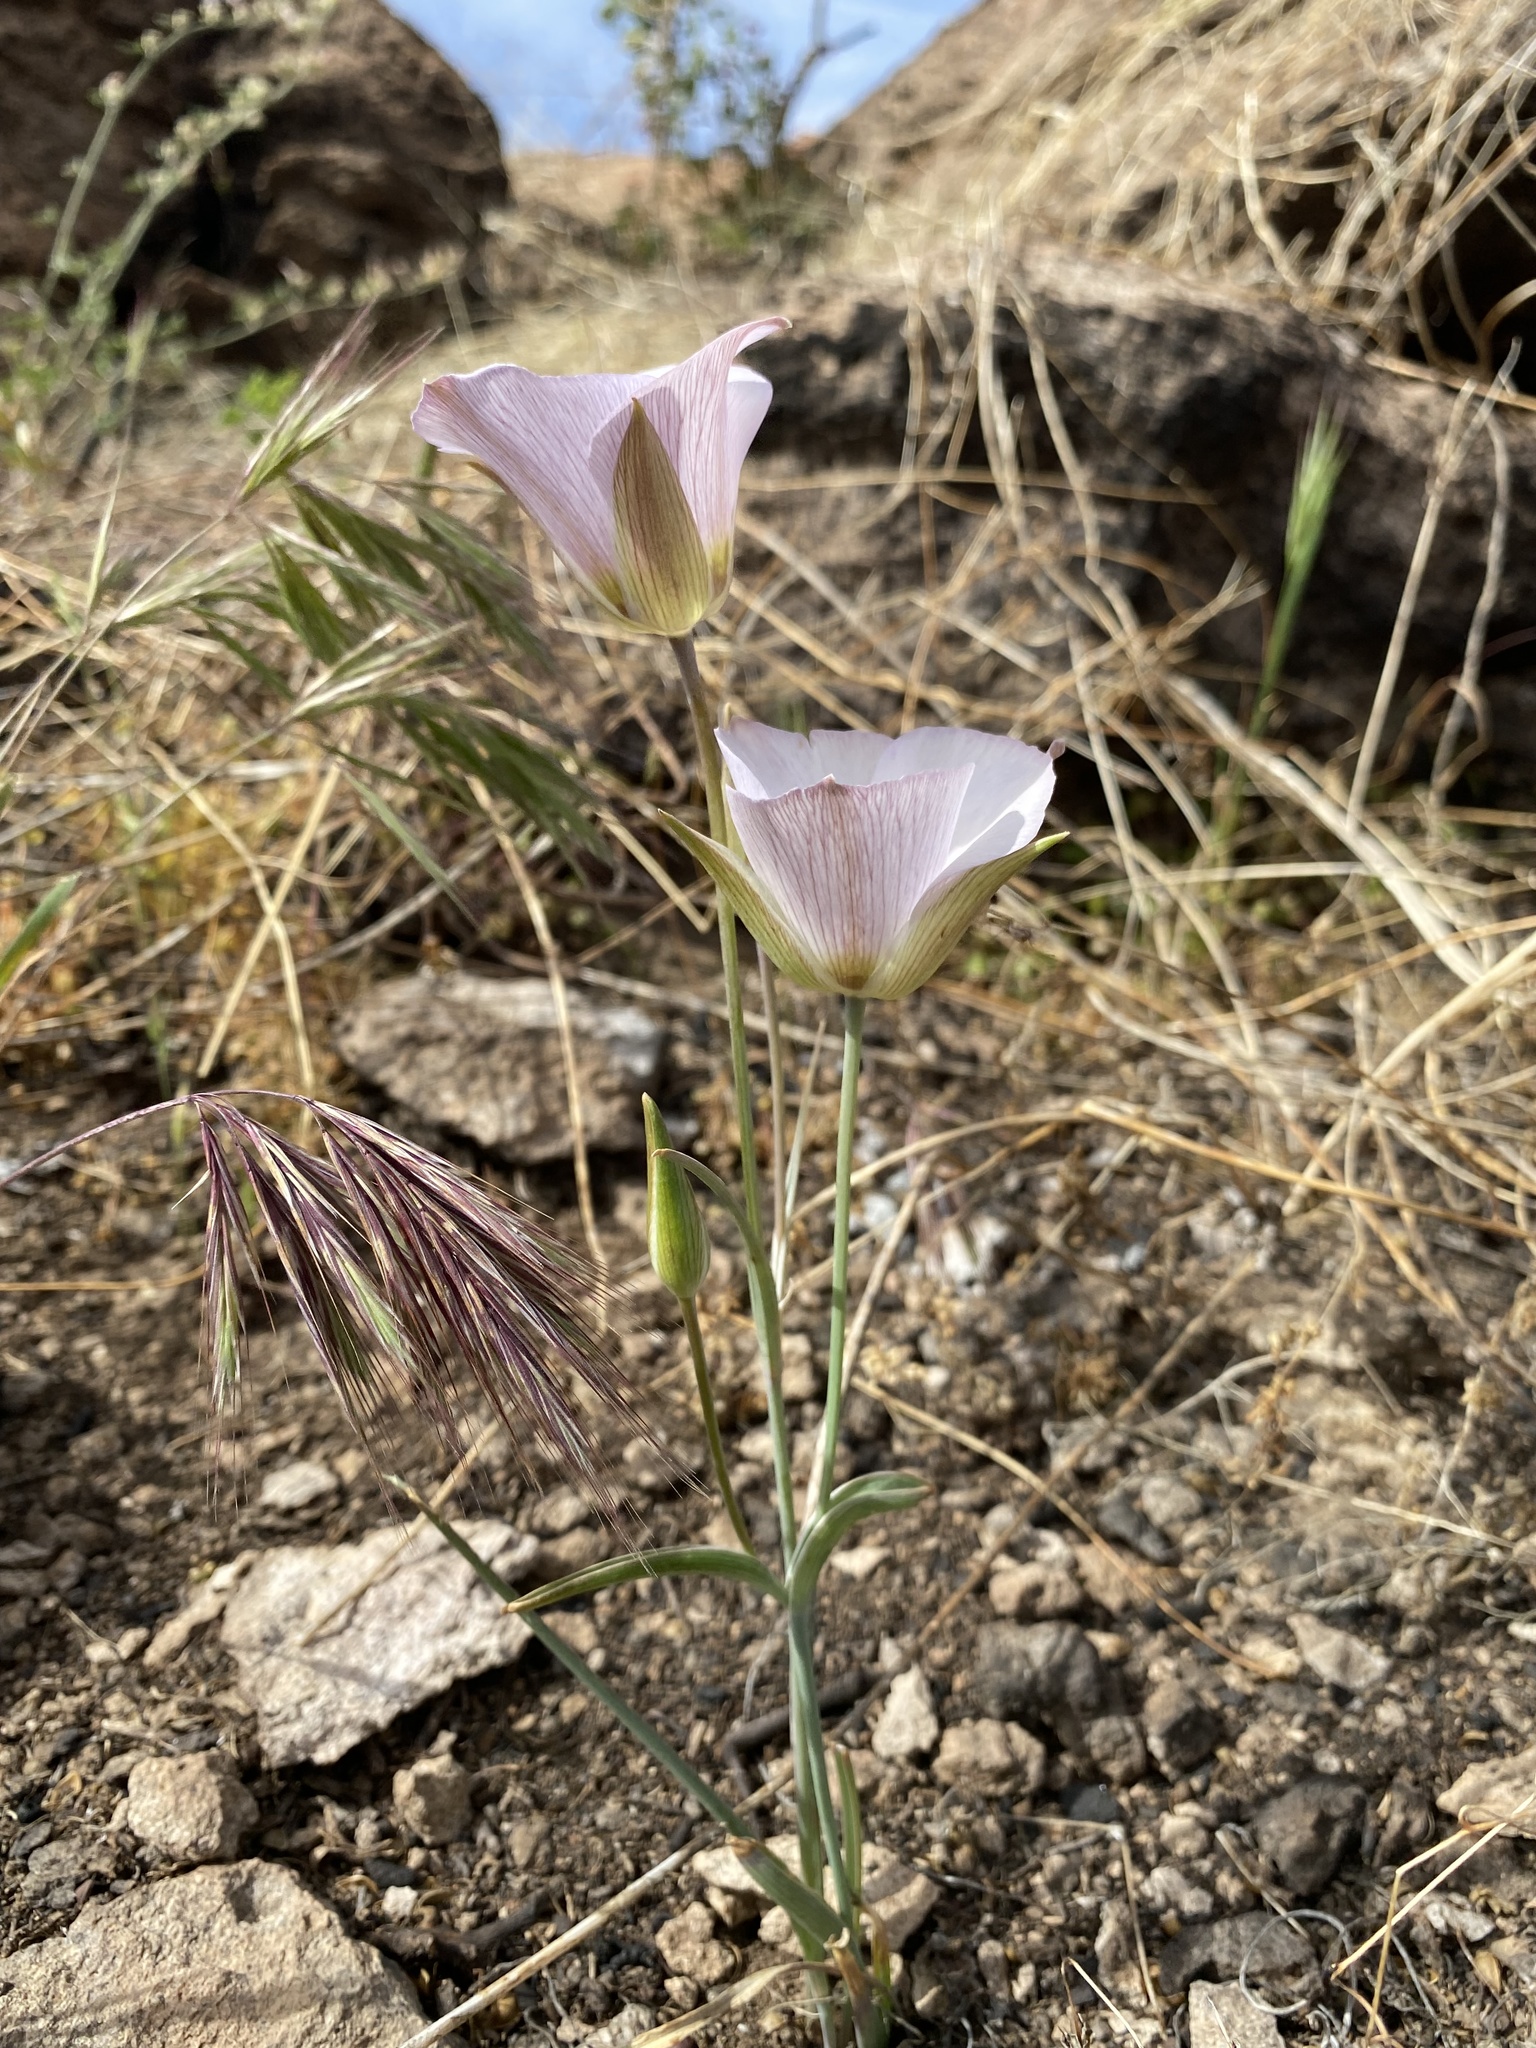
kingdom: Plantae
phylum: Tracheophyta
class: Liliopsida
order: Liliales
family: Liliaceae
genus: Calochortus
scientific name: Calochortus ambiguus
